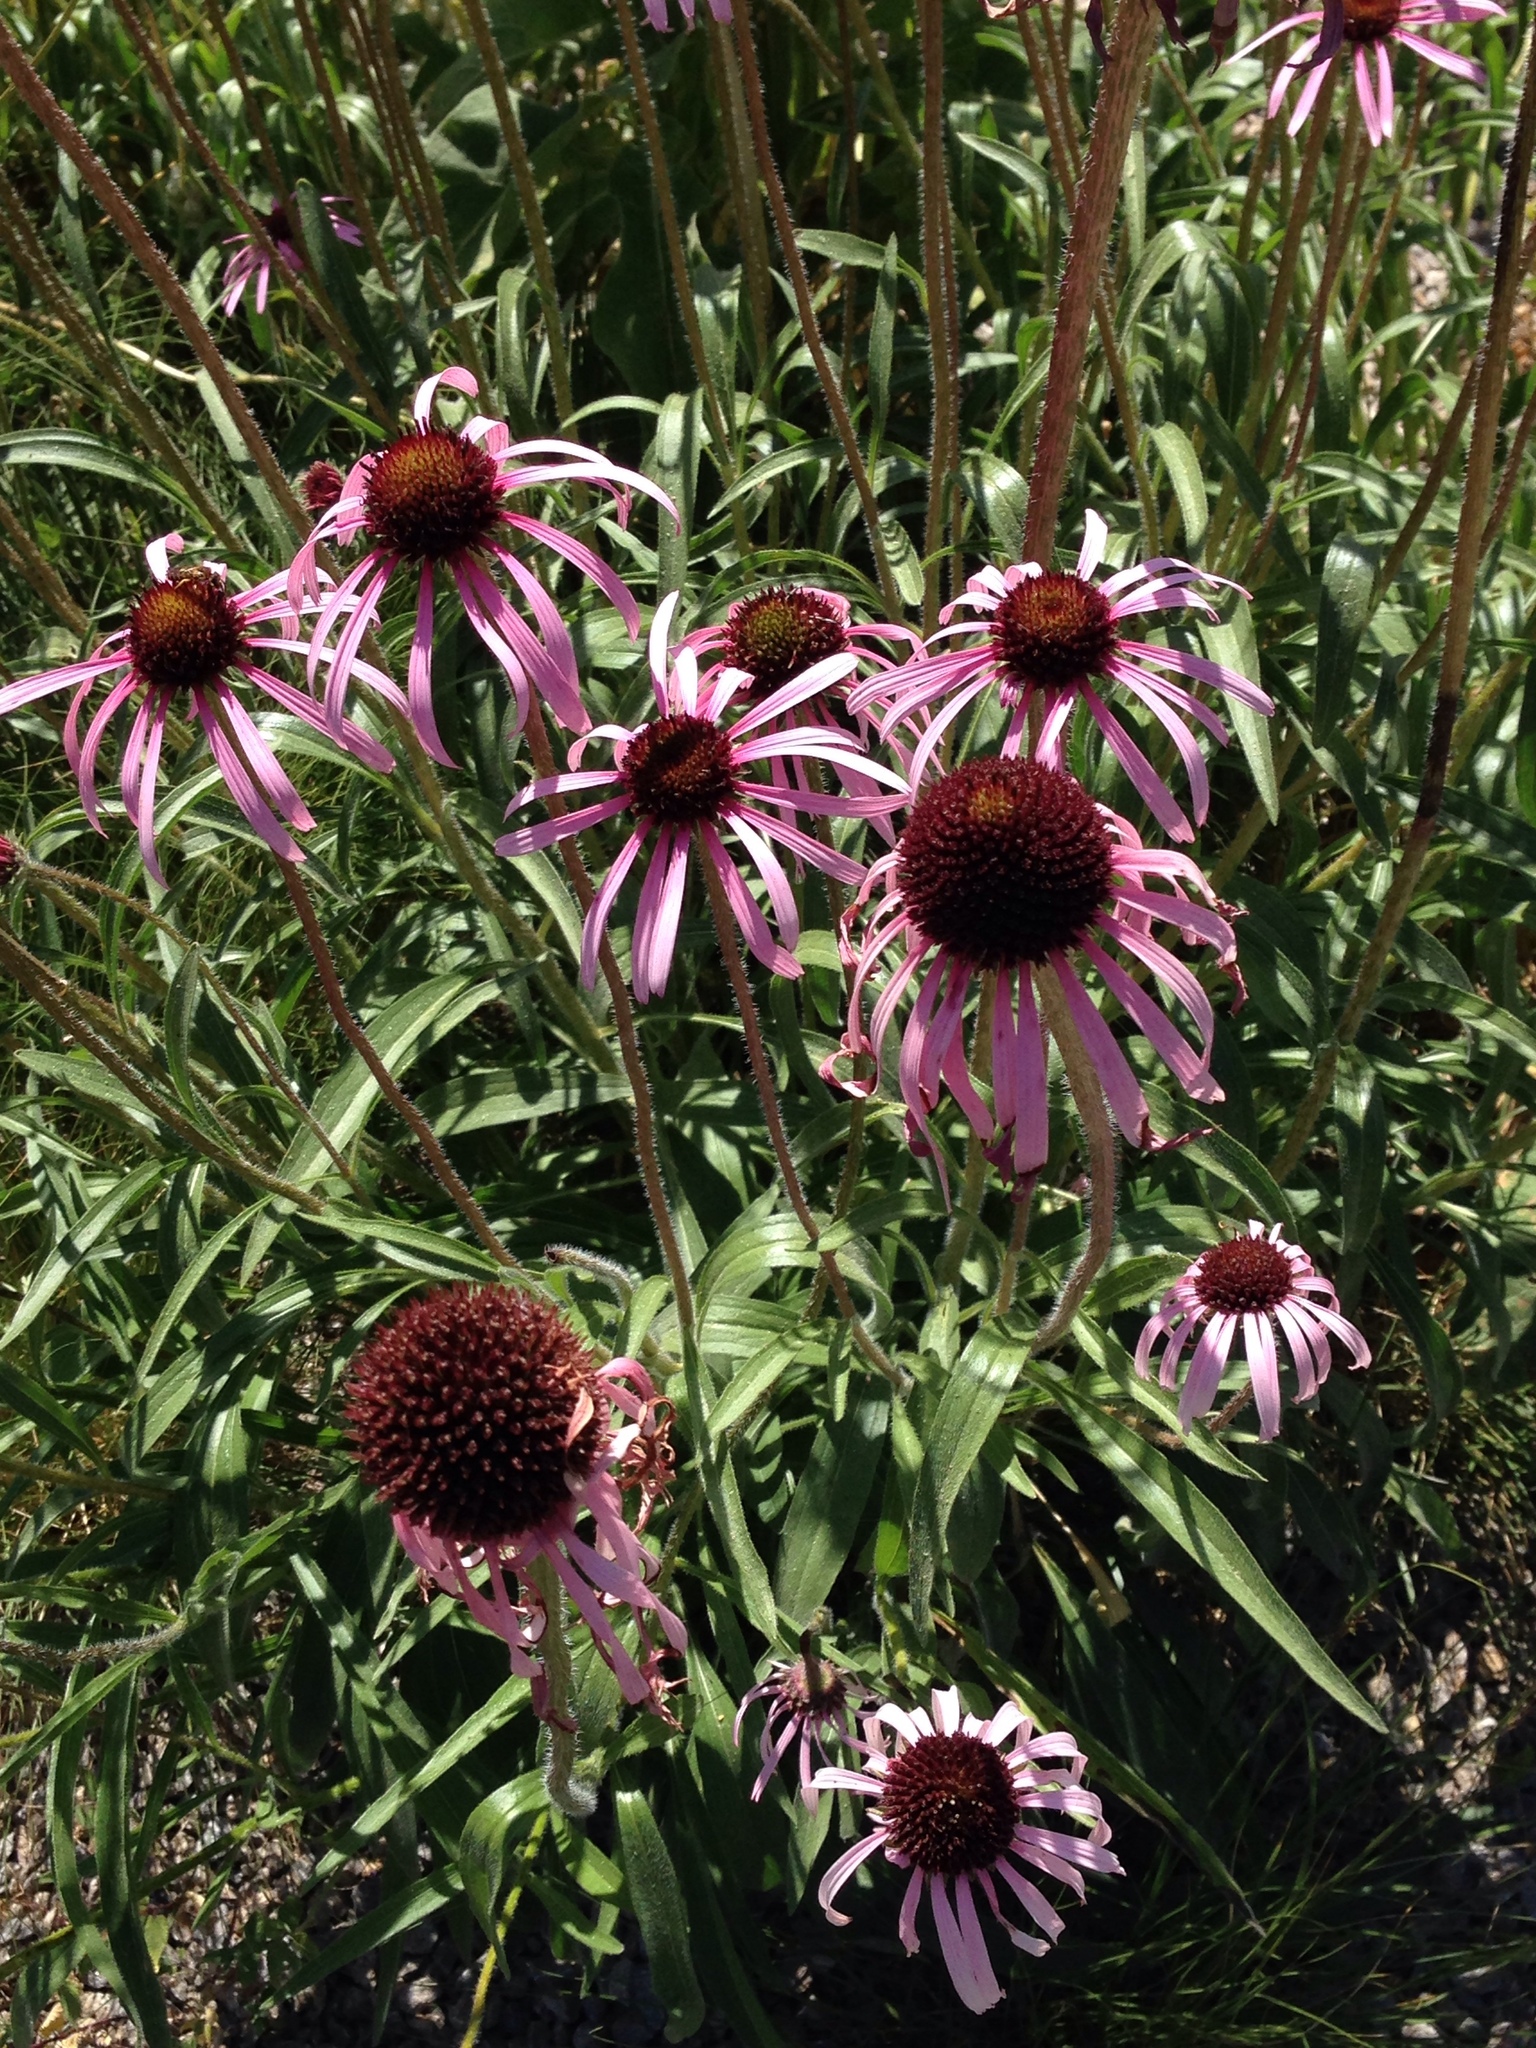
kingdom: Plantae
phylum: Tracheophyta
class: Magnoliopsida
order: Asterales
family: Asteraceae
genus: Echinacea
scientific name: Echinacea angustifolia
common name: Black-sampson echinacea
